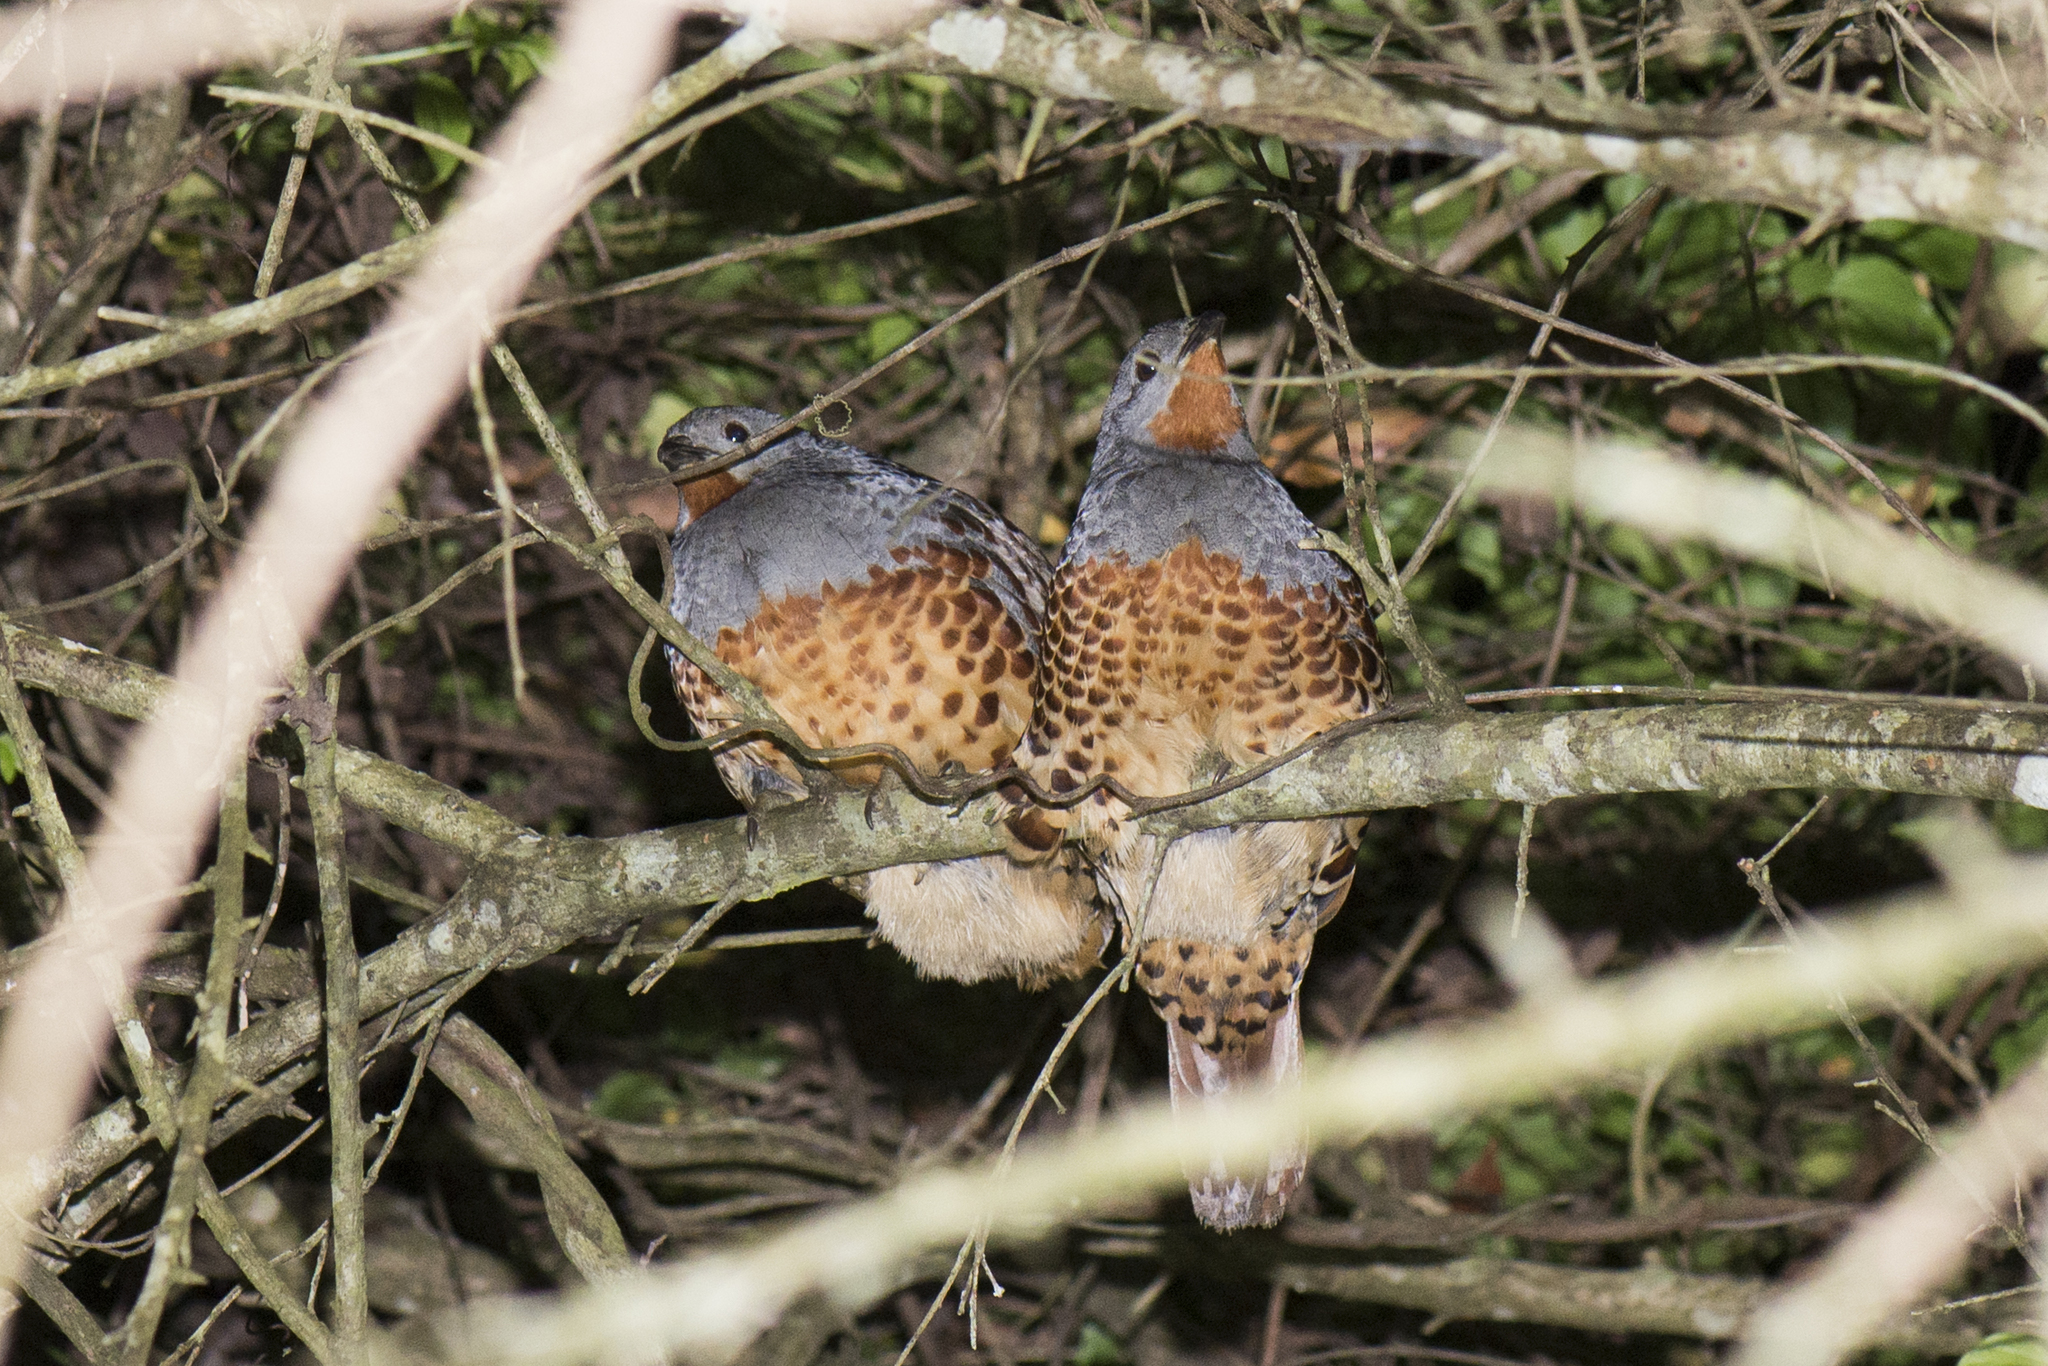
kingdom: Animalia
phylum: Chordata
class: Aves
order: Galliformes
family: Phasianidae
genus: Bambusicola
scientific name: Bambusicola sonorivox
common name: Taiwan bamboo-partridge
